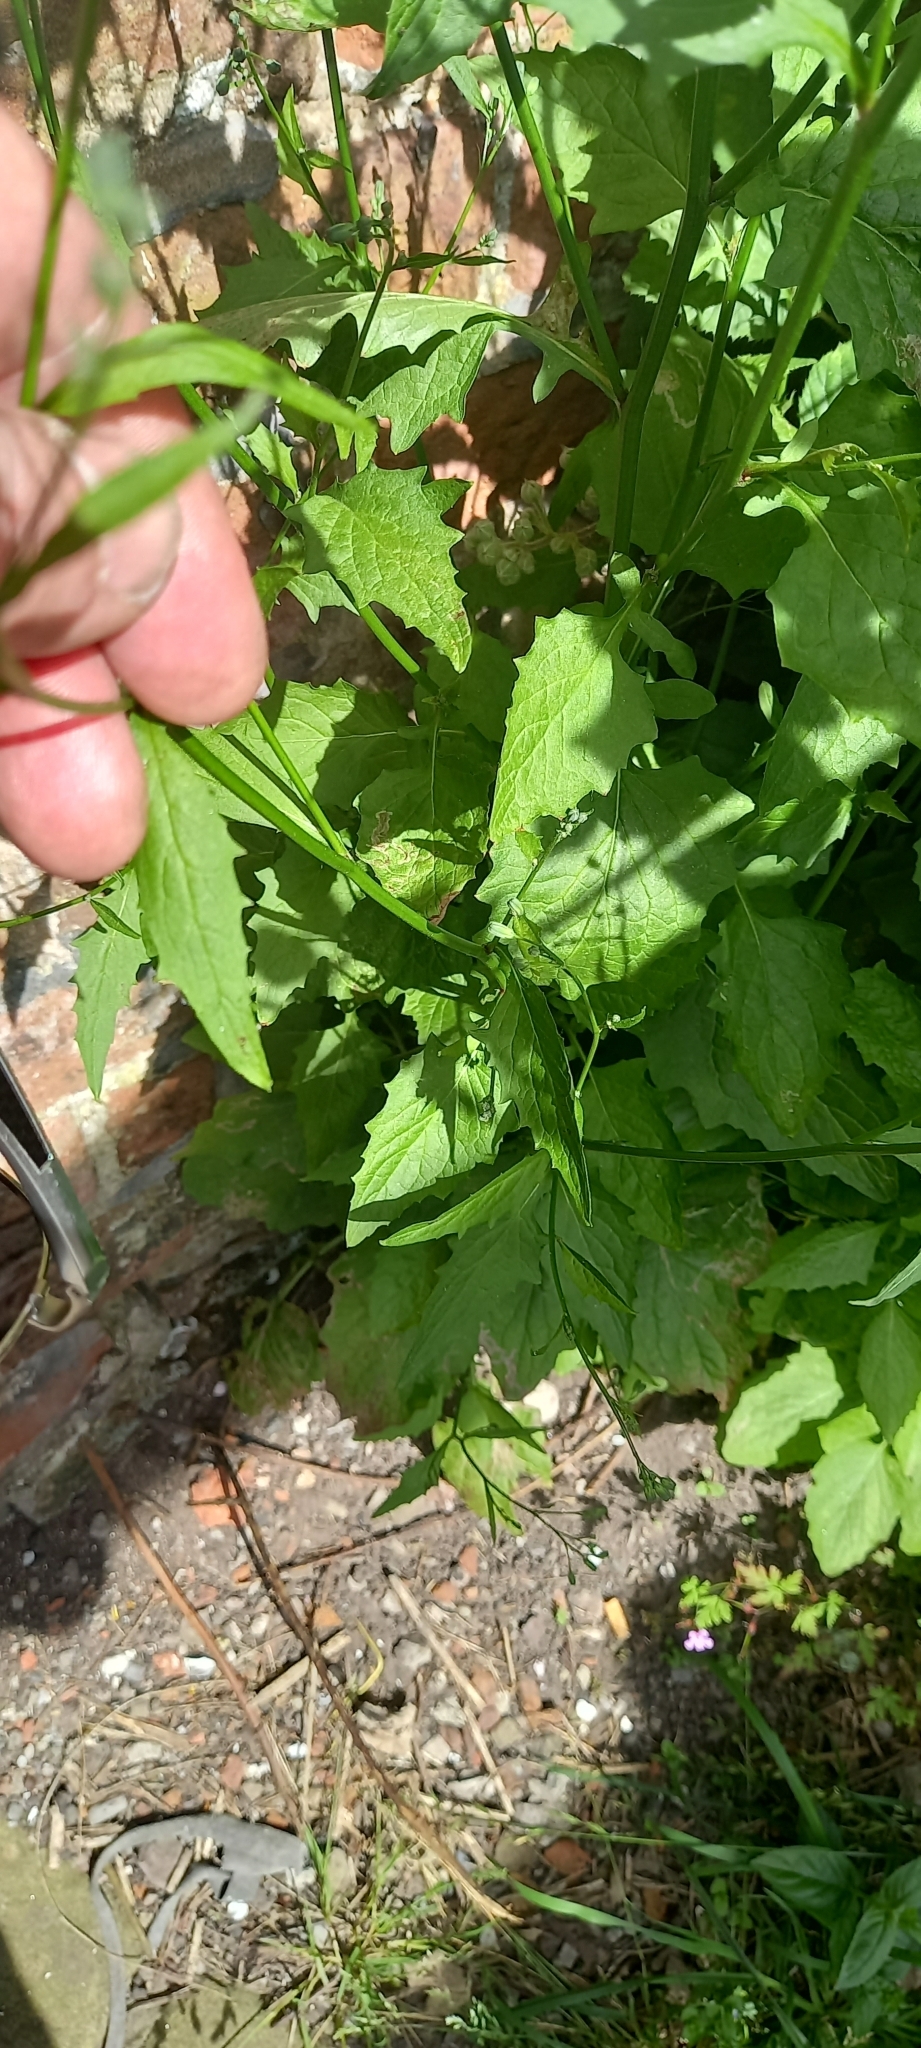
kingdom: Plantae
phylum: Tracheophyta
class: Magnoliopsida
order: Asterales
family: Asteraceae
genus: Lapsana
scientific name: Lapsana communis
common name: Nipplewort
